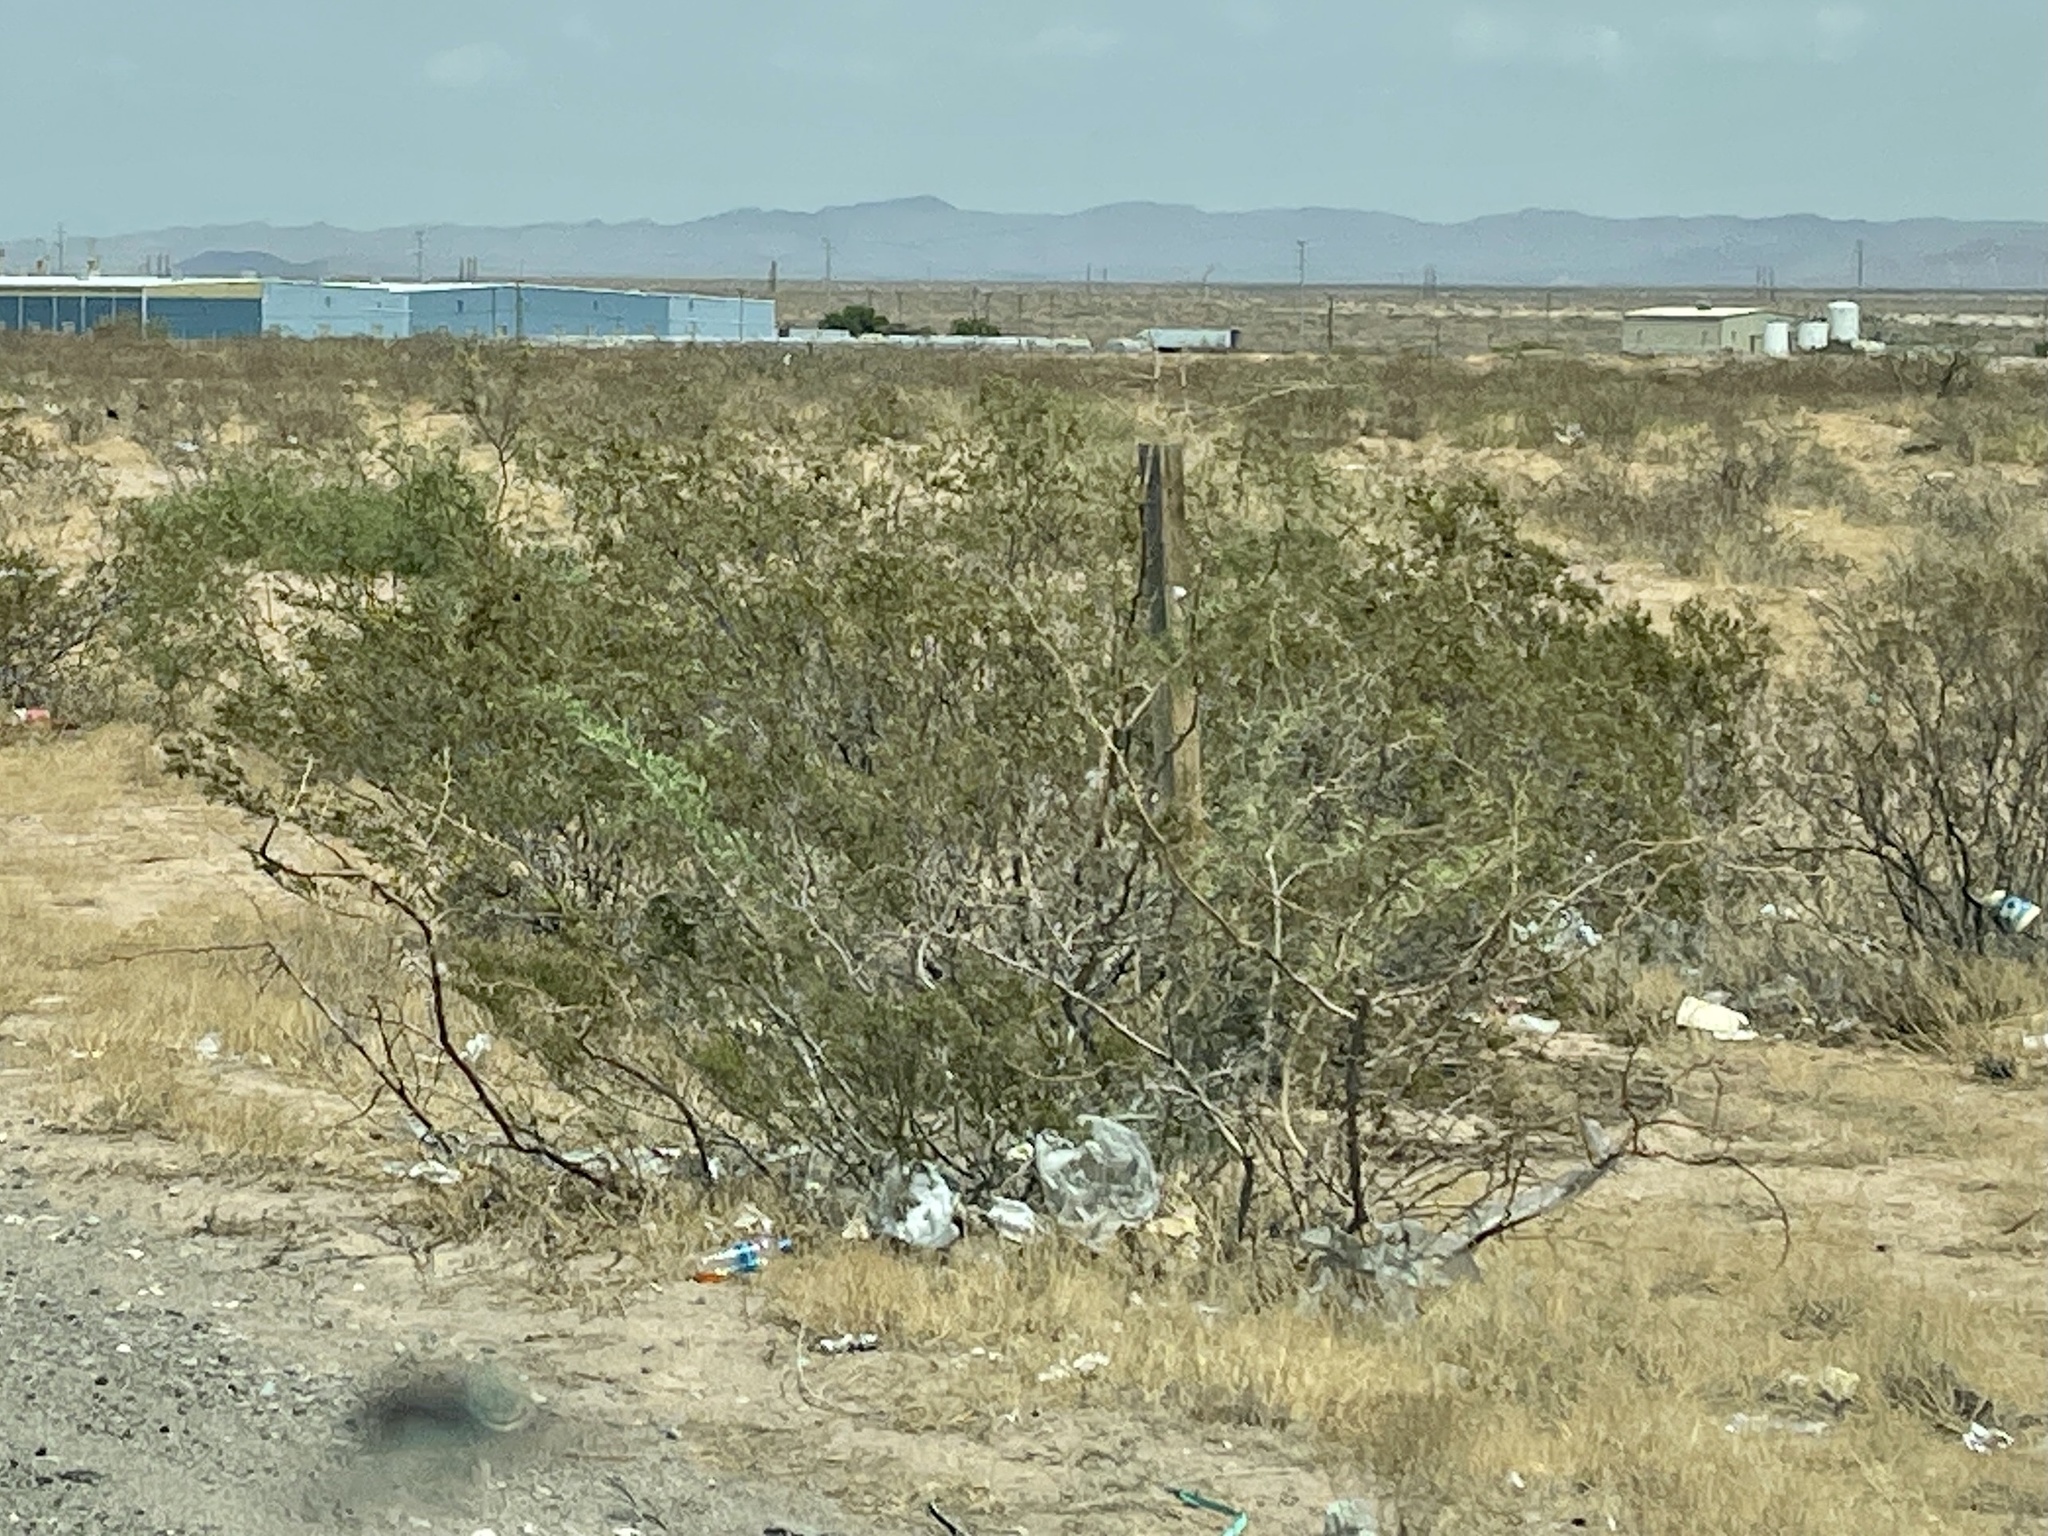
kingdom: Plantae
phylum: Tracheophyta
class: Magnoliopsida
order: Zygophyllales
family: Zygophyllaceae
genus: Larrea
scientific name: Larrea tridentata
